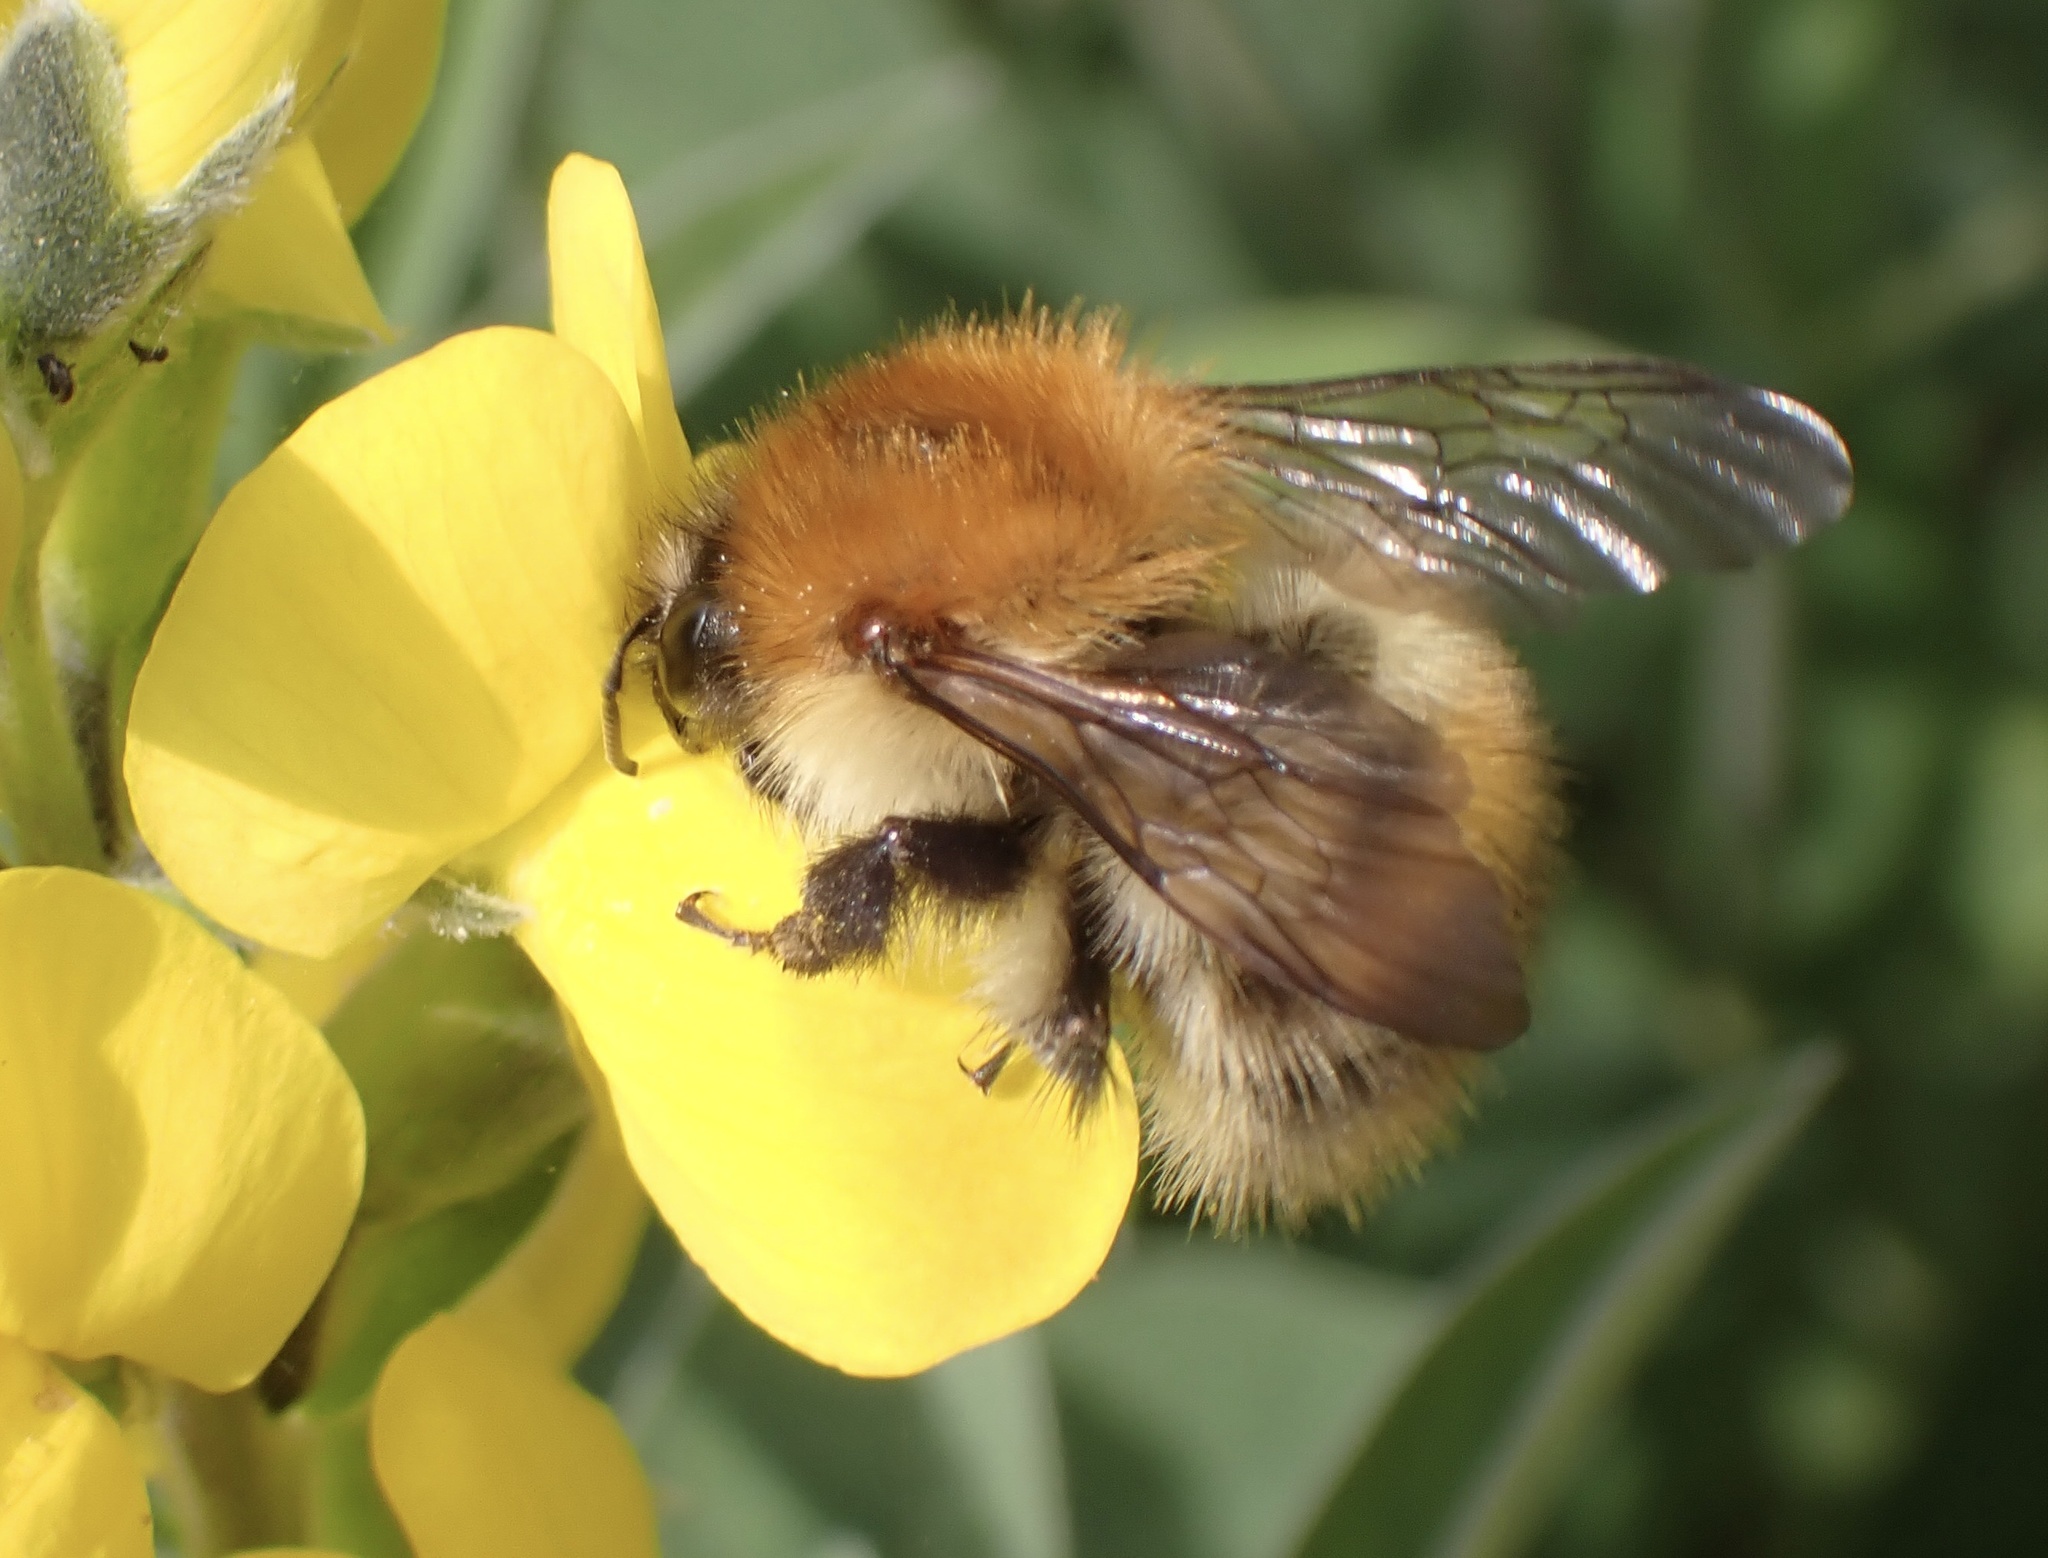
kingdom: Animalia
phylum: Arthropoda
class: Insecta
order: Hymenoptera
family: Apidae
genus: Bombus
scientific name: Bombus pascuorum
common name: Common carder bee
